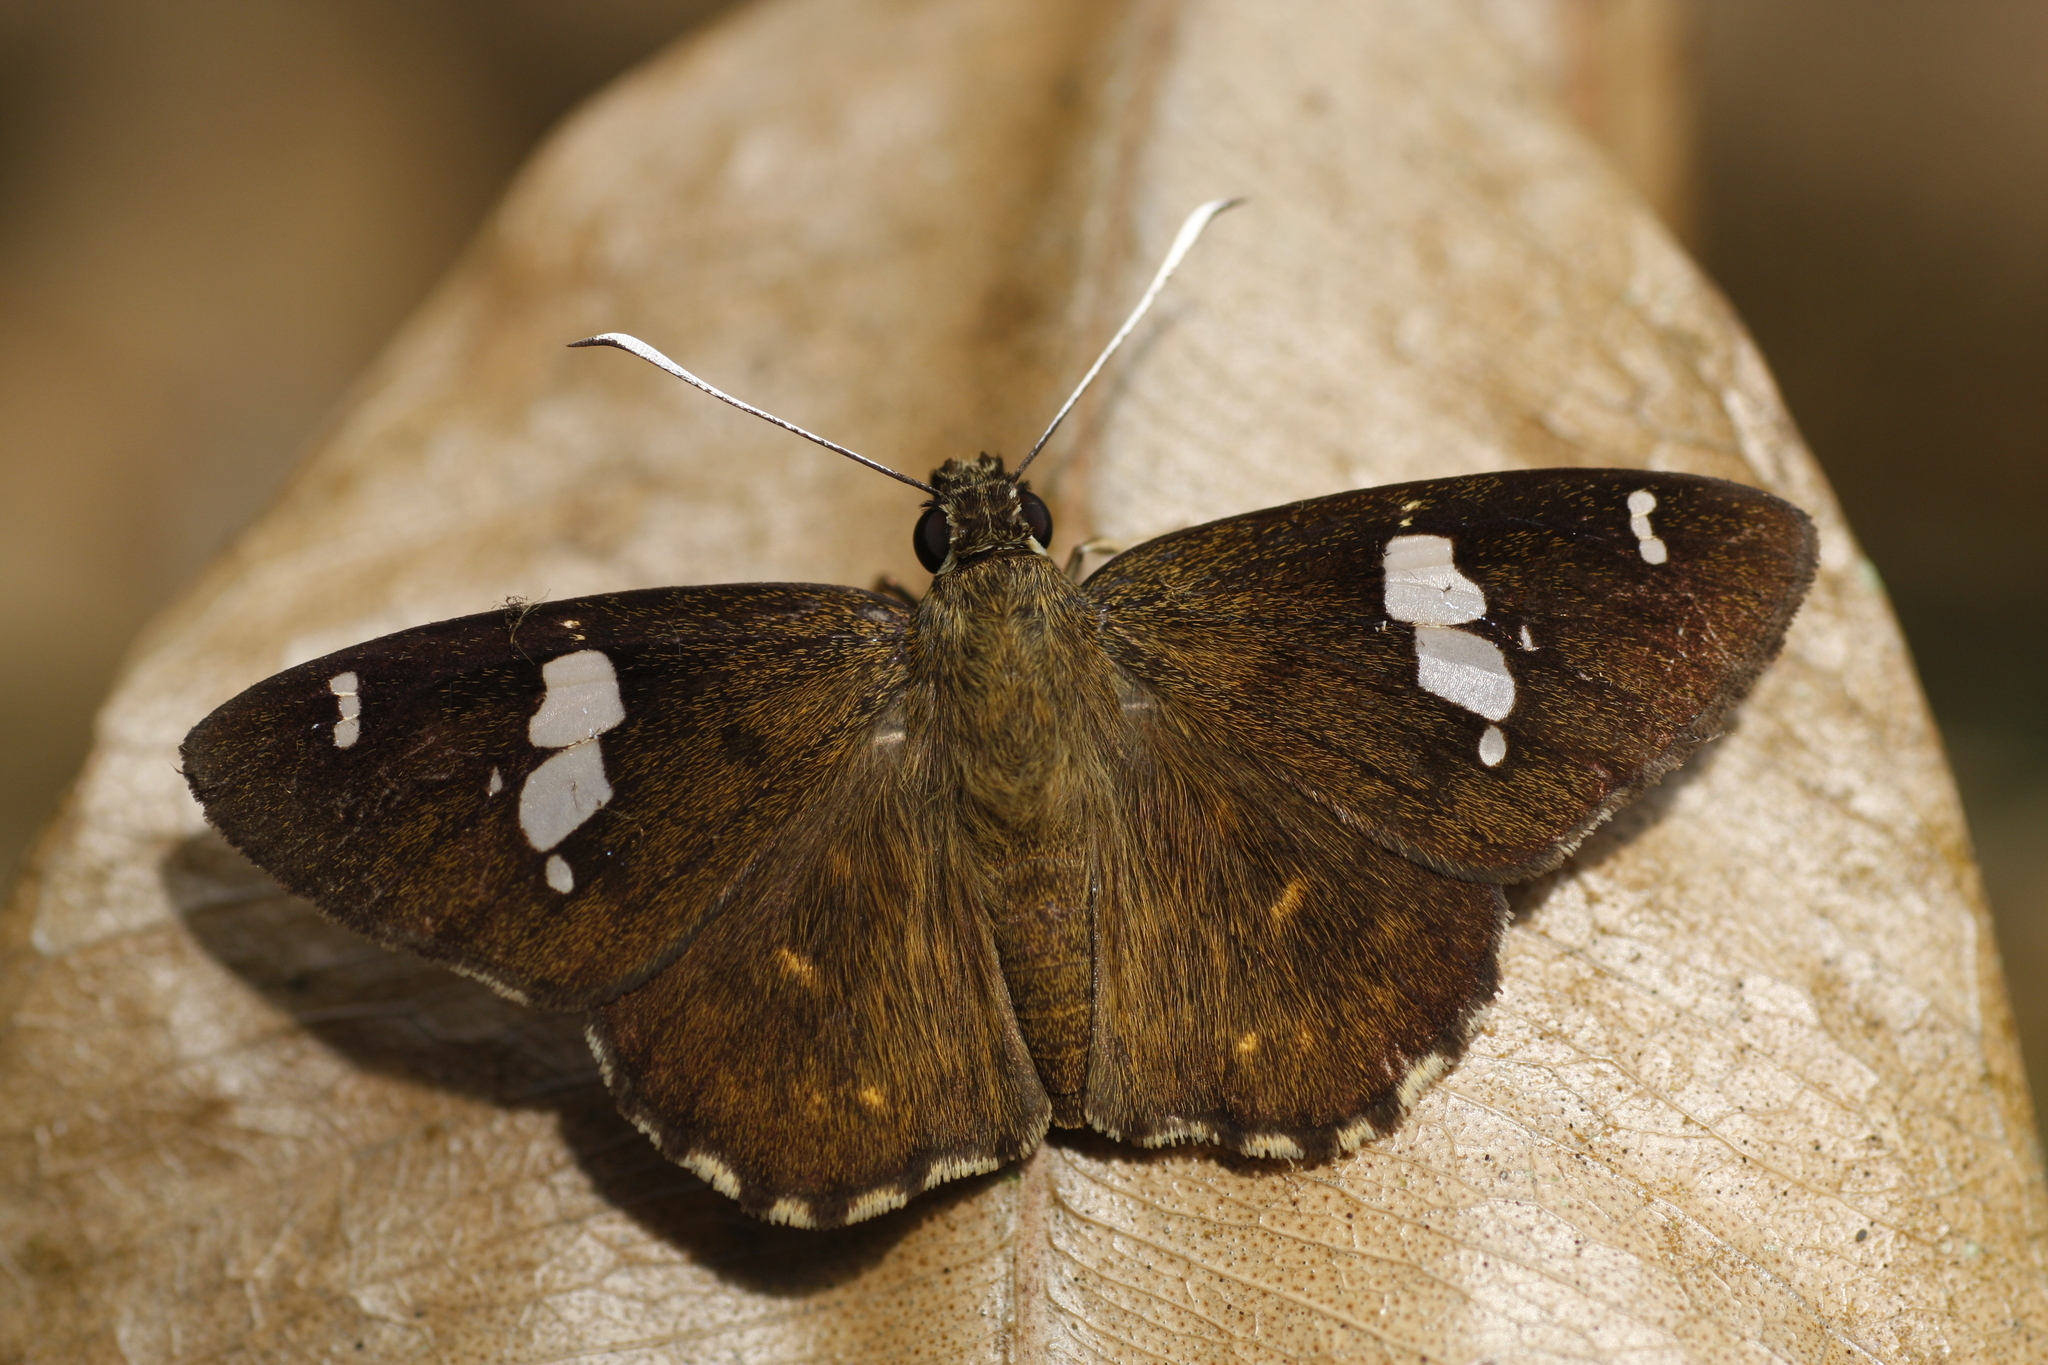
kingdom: Animalia
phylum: Arthropoda
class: Insecta
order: Lepidoptera
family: Hesperiidae
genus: Celaenorrhinus
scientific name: Celaenorrhinus
